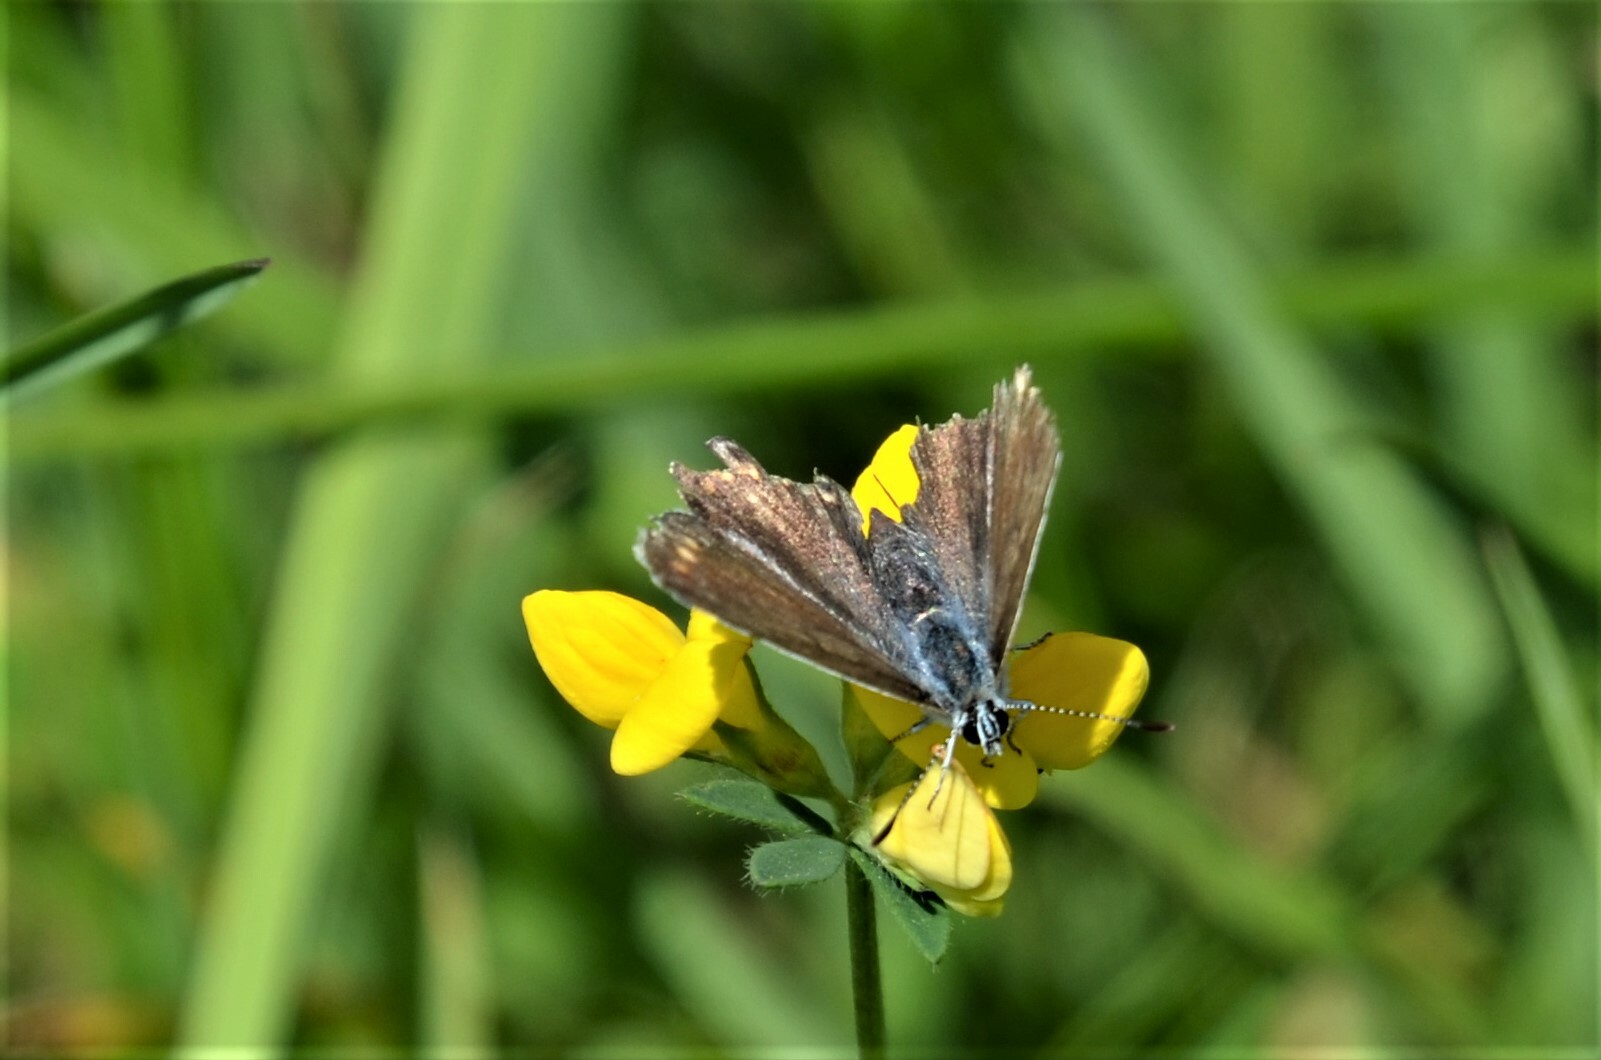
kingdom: Animalia
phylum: Arthropoda
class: Insecta
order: Lepidoptera
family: Lycaenidae
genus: Polyommatus
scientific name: Polyommatus icarus
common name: Common blue
